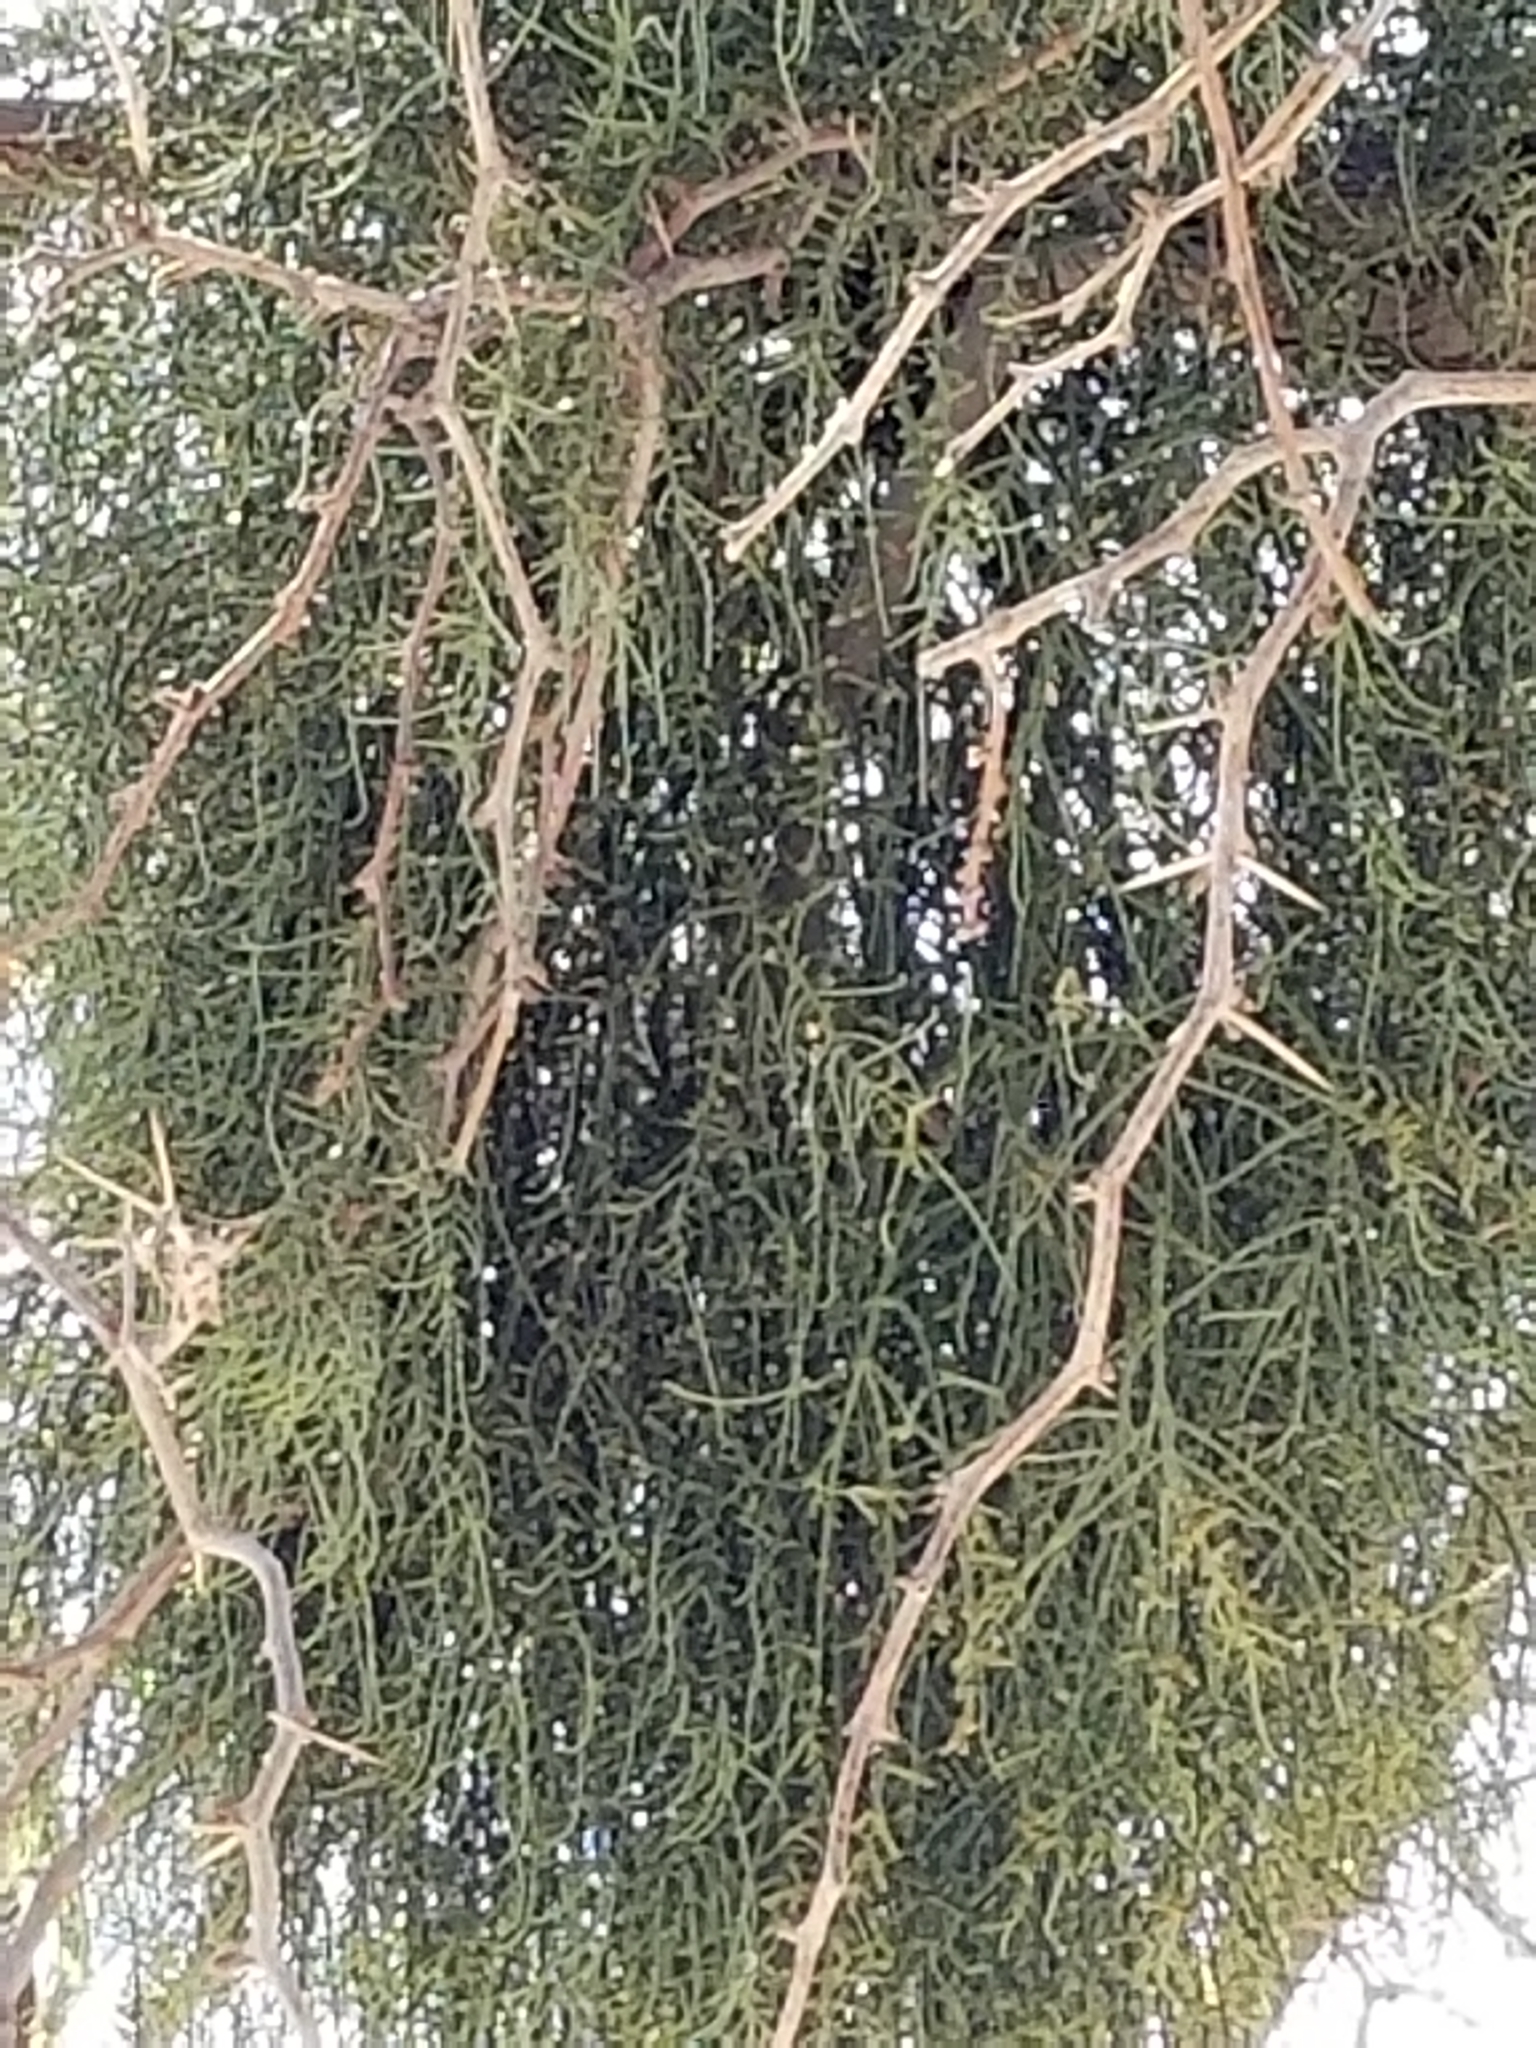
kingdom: Plantae
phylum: Tracheophyta
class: Magnoliopsida
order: Santalales
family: Viscaceae
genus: Phoradendron
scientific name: Phoradendron californicum
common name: Acacia mistletoe
